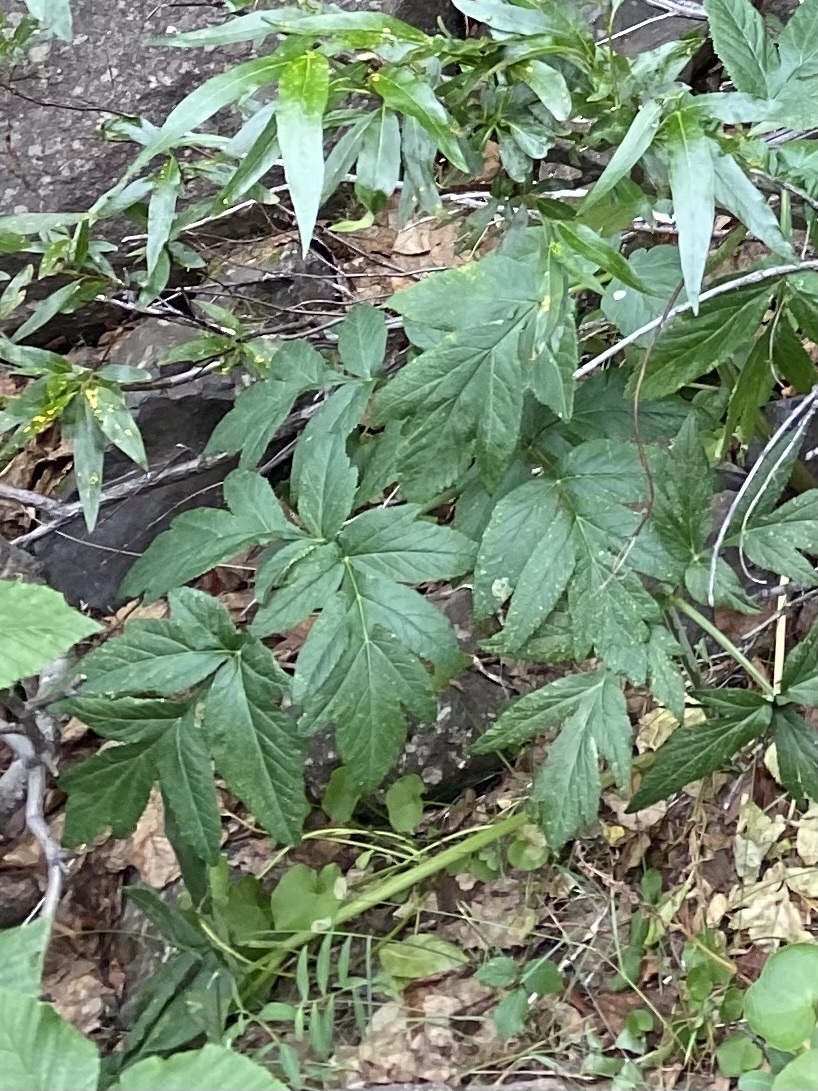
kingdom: Plantae
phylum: Tracheophyta
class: Magnoliopsida
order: Apiales
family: Apiaceae
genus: Angelica
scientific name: Angelica decurrens
